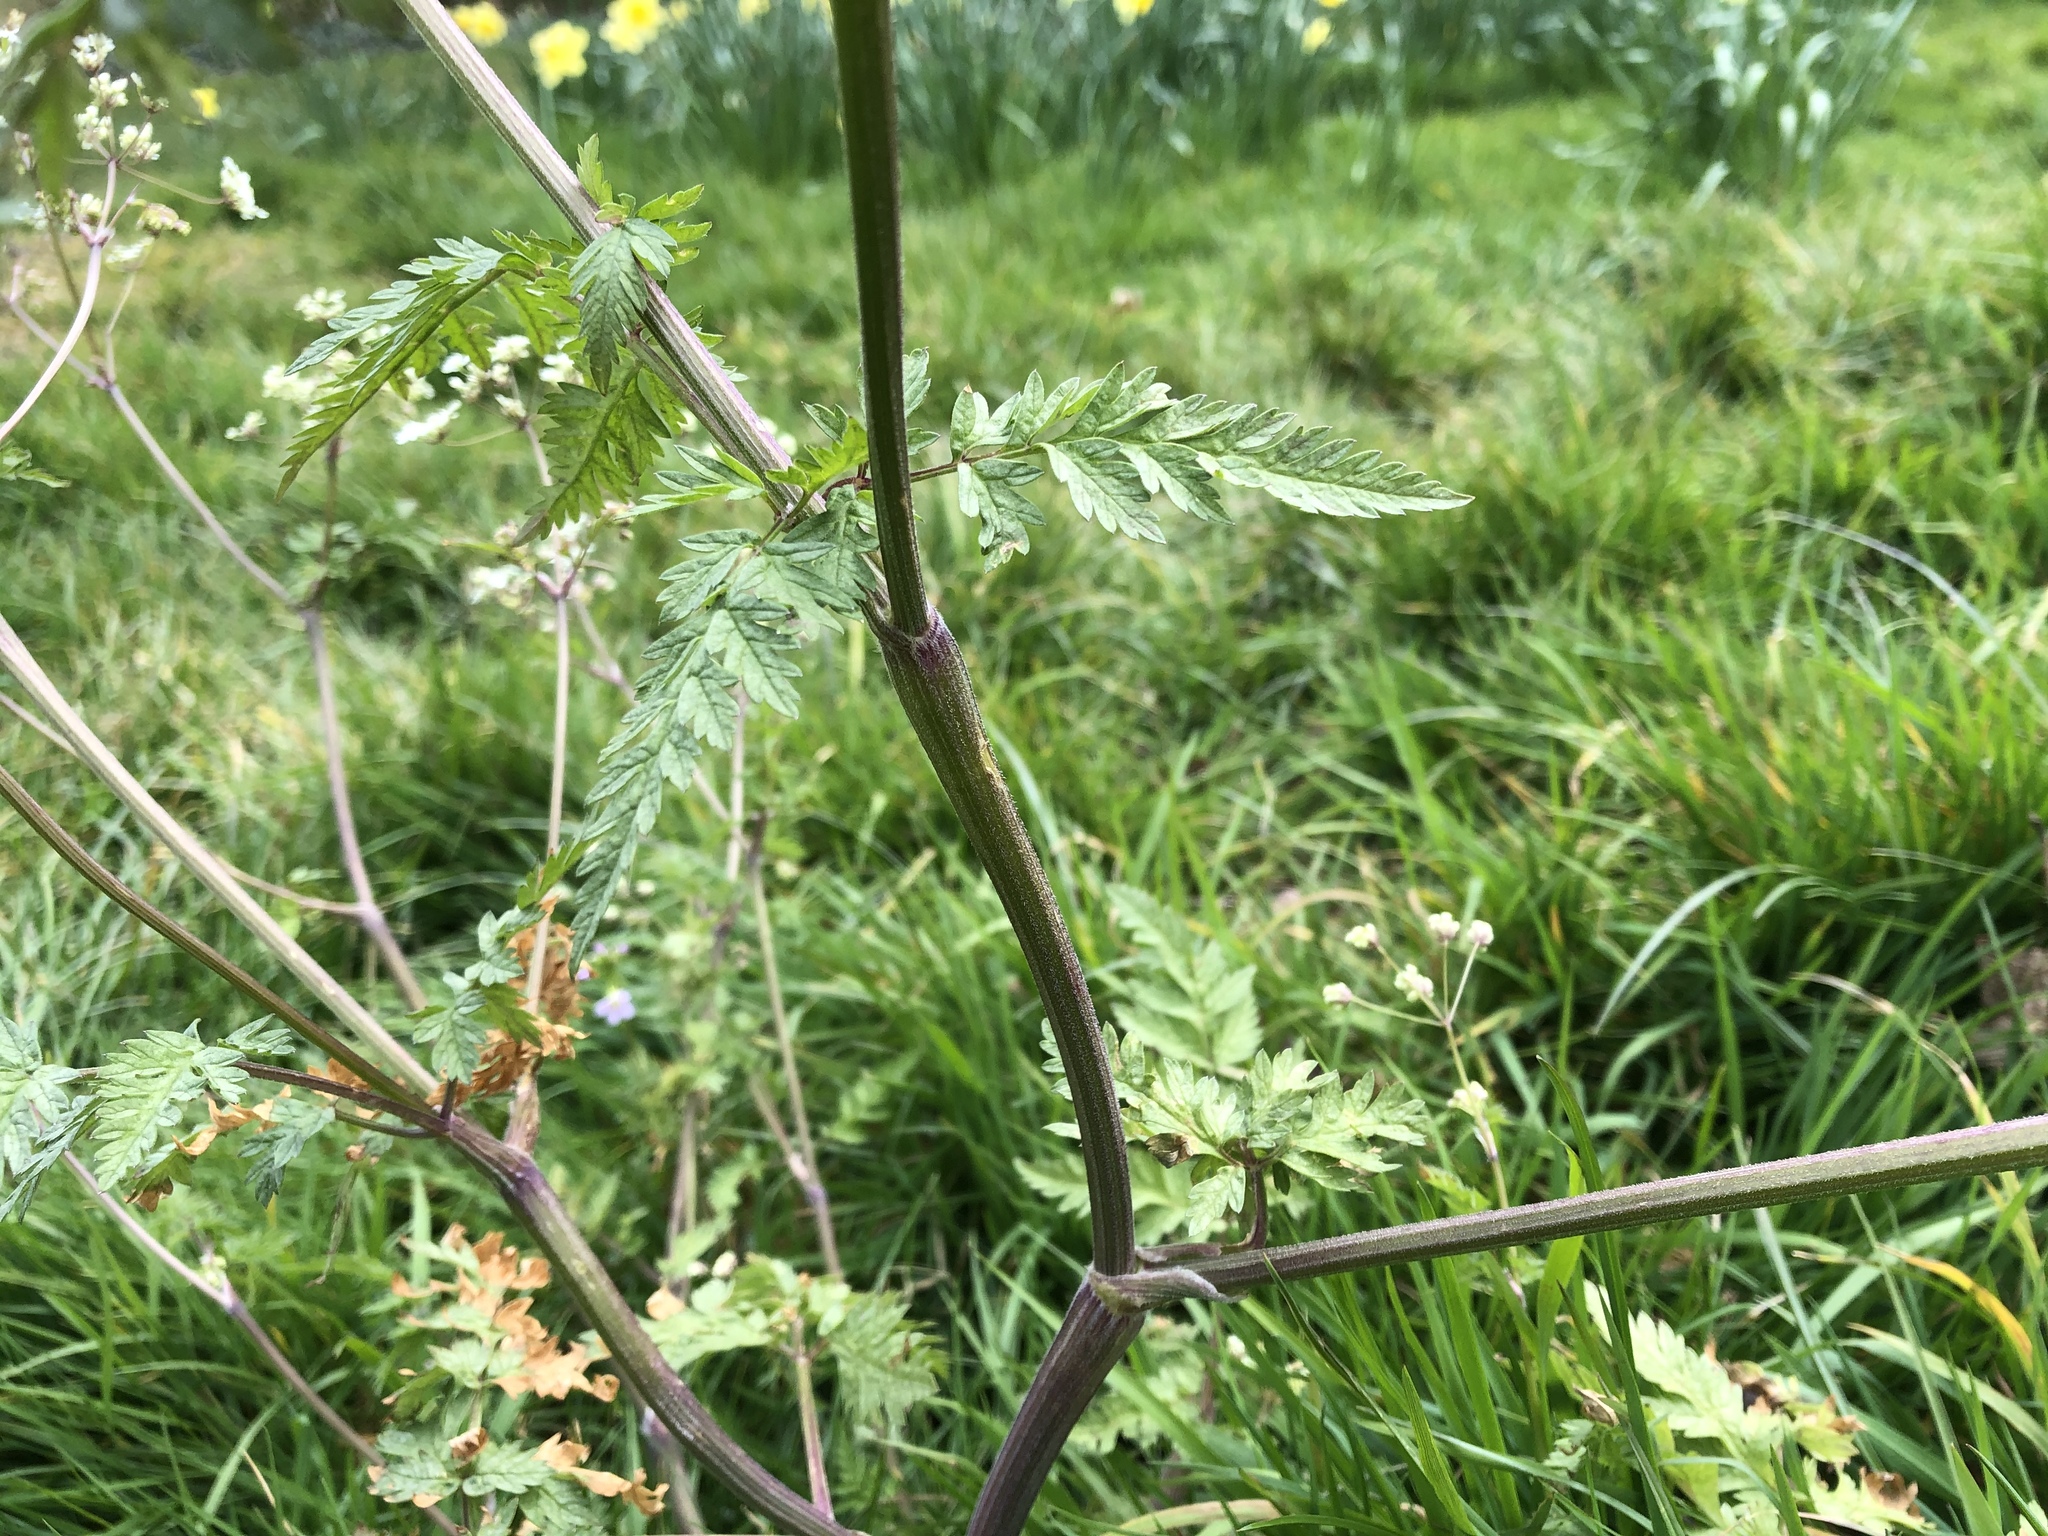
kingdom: Plantae
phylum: Tracheophyta
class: Magnoliopsida
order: Apiales
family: Apiaceae
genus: Anthriscus
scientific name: Anthriscus sylvestris
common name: Cow parsley
